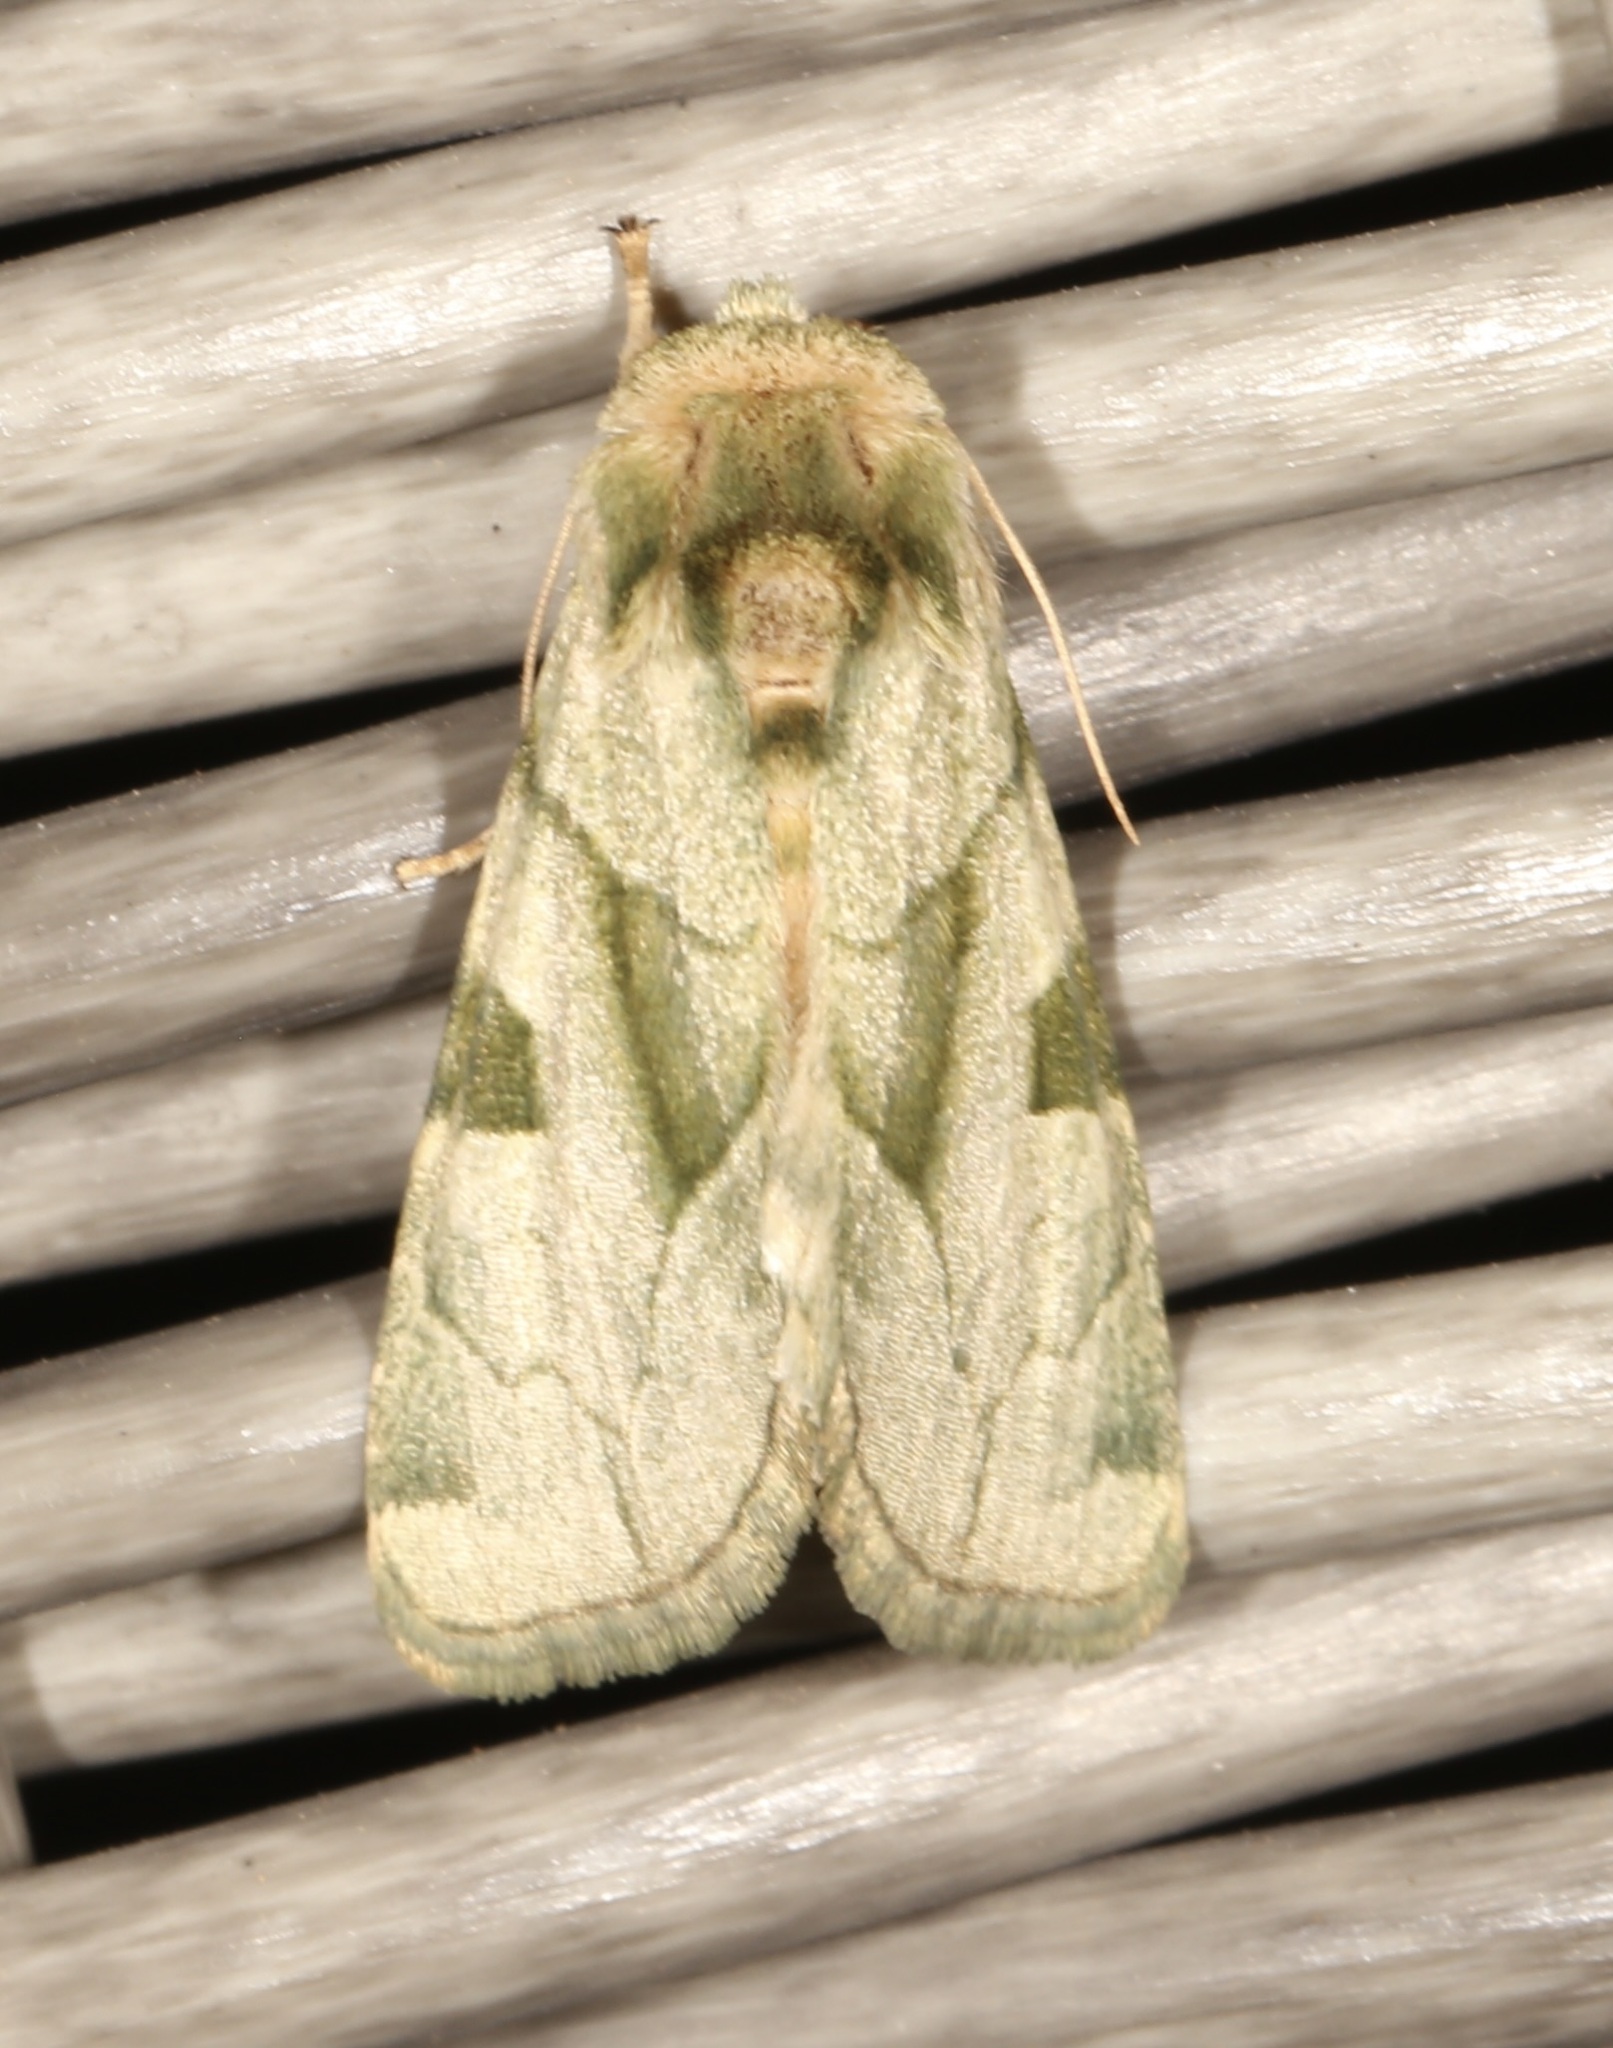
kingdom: Animalia
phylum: Arthropoda
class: Insecta
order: Lepidoptera
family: Noctuidae
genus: Oslaria
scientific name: Oslaria viridifera
